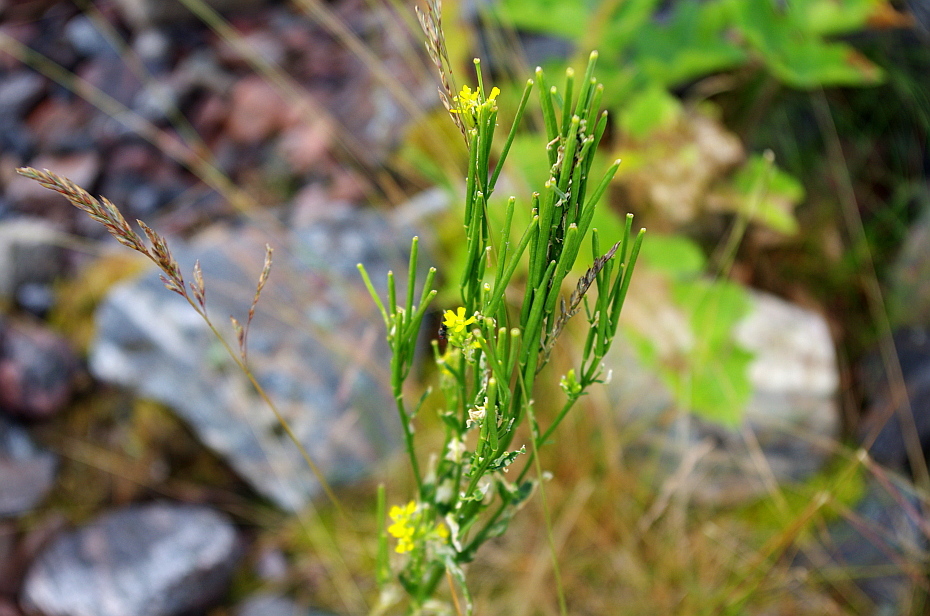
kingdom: Plantae
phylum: Tracheophyta
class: Magnoliopsida
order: Brassicales
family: Brassicaceae
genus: Erysimum
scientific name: Erysimum hieraciifolium
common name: European wallflower
